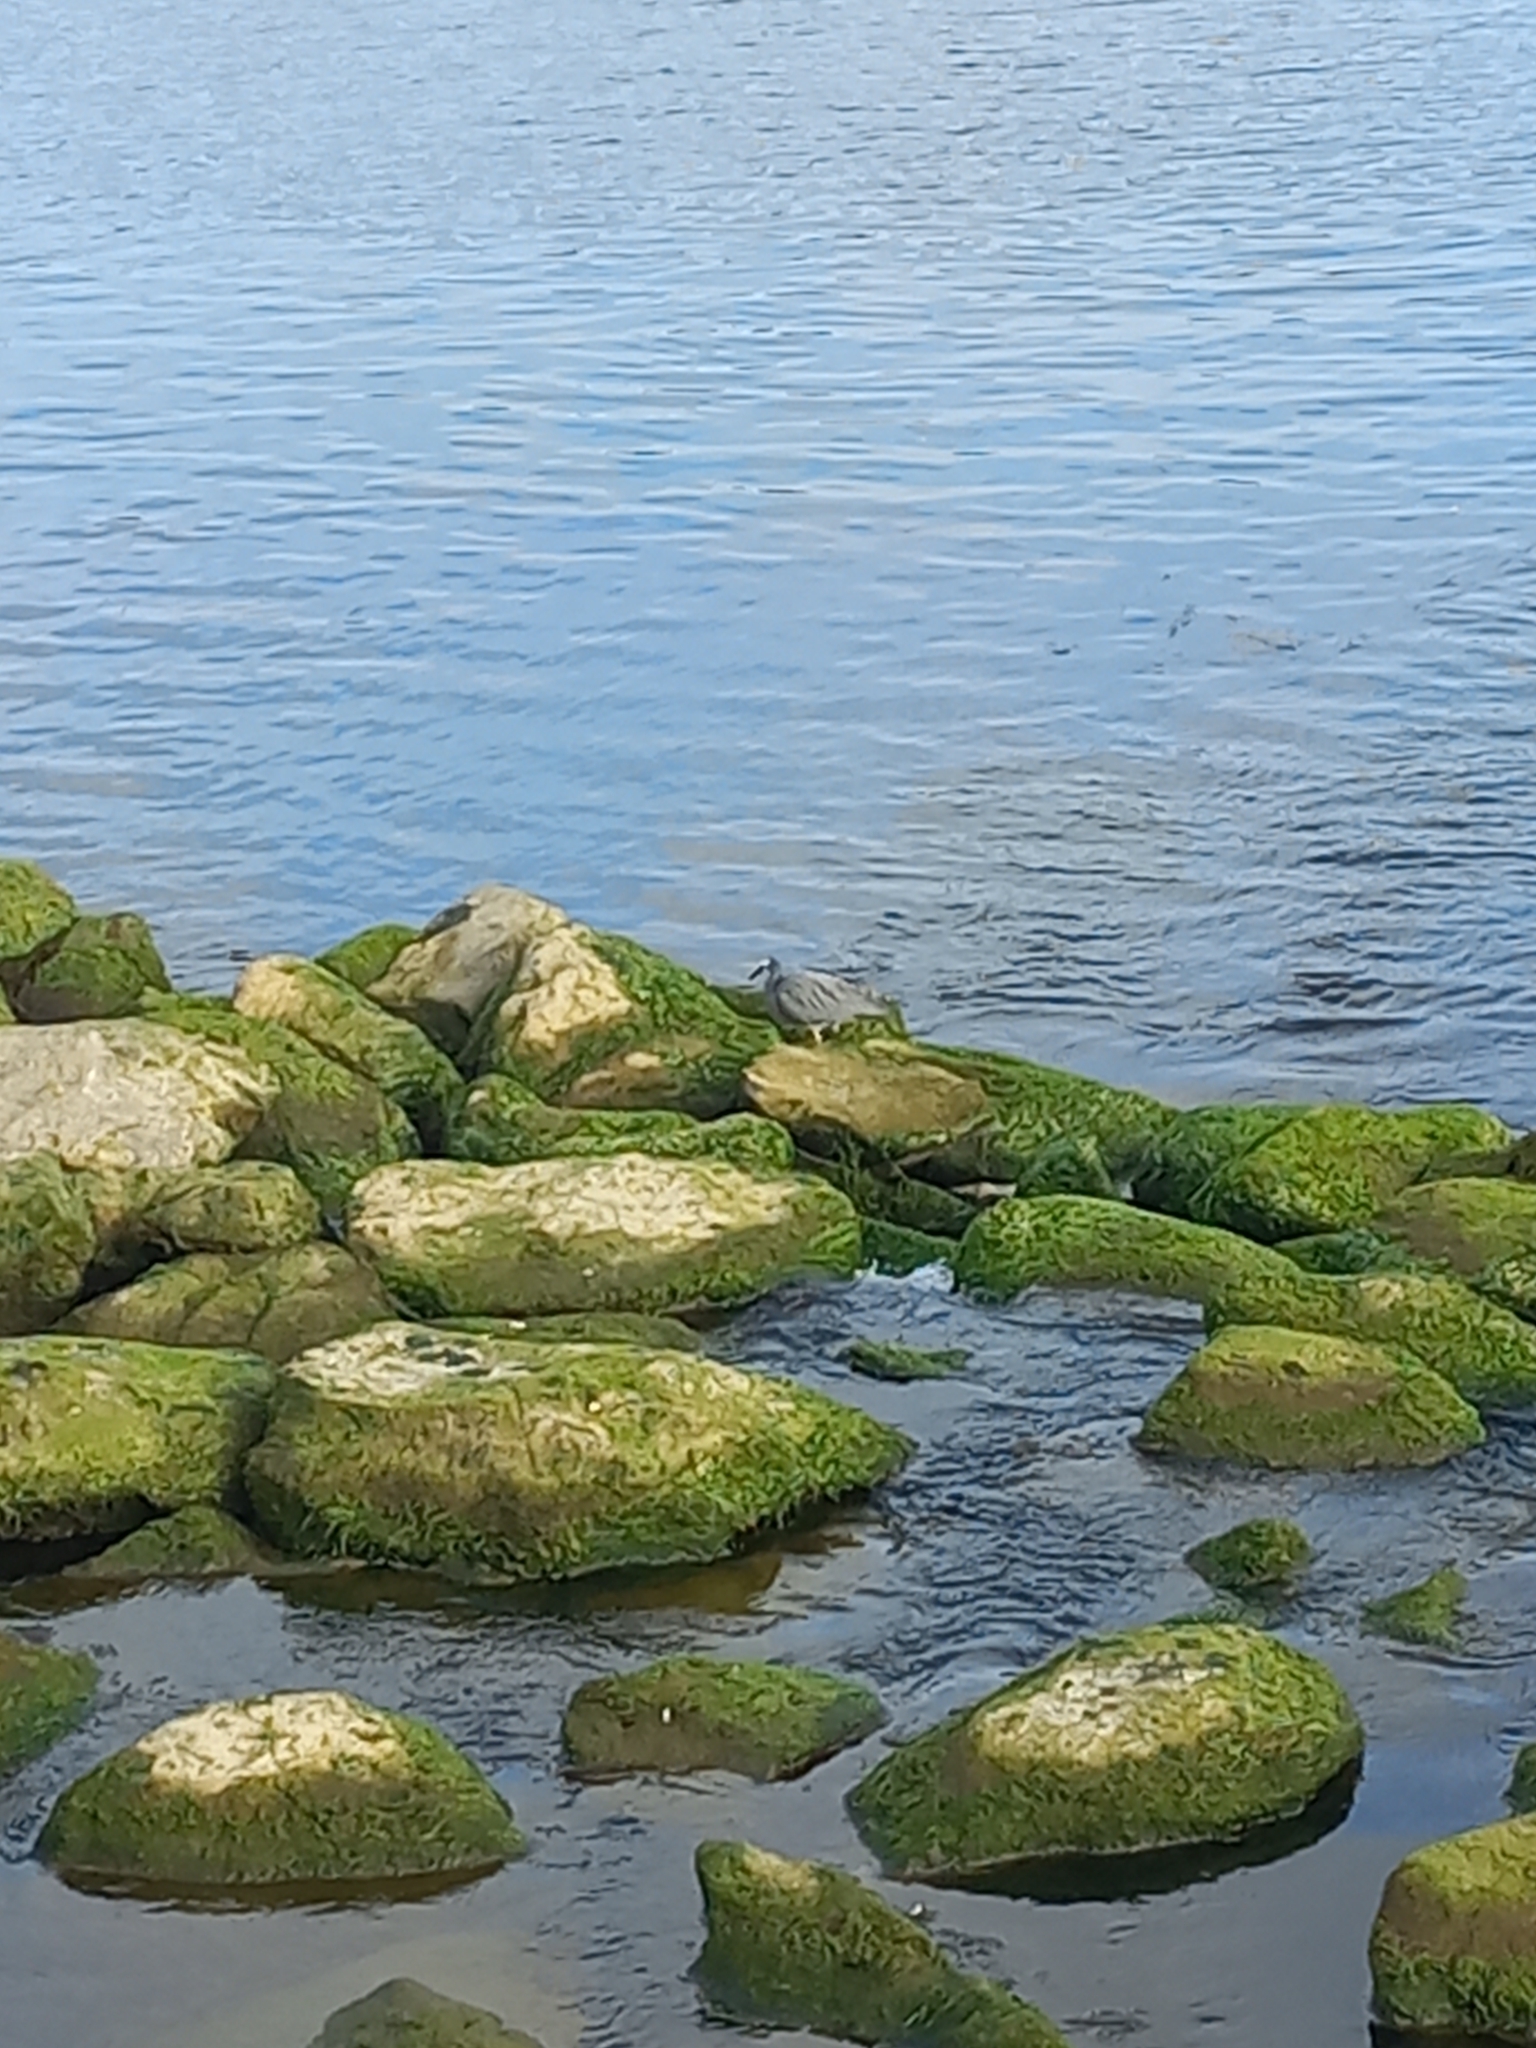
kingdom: Animalia
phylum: Chordata
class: Aves
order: Pelecaniformes
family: Ardeidae
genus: Egretta
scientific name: Egretta novaehollandiae
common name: White-faced heron
